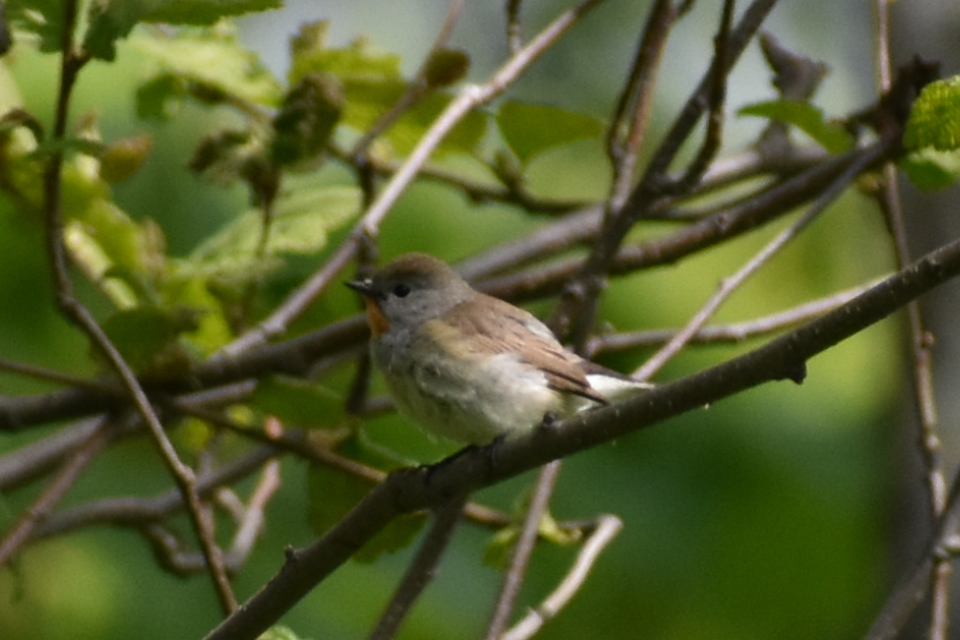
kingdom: Animalia
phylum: Chordata
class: Aves
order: Passeriformes
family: Muscicapidae
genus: Ficedula
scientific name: Ficedula albicilla
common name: Taiga flycatcher
